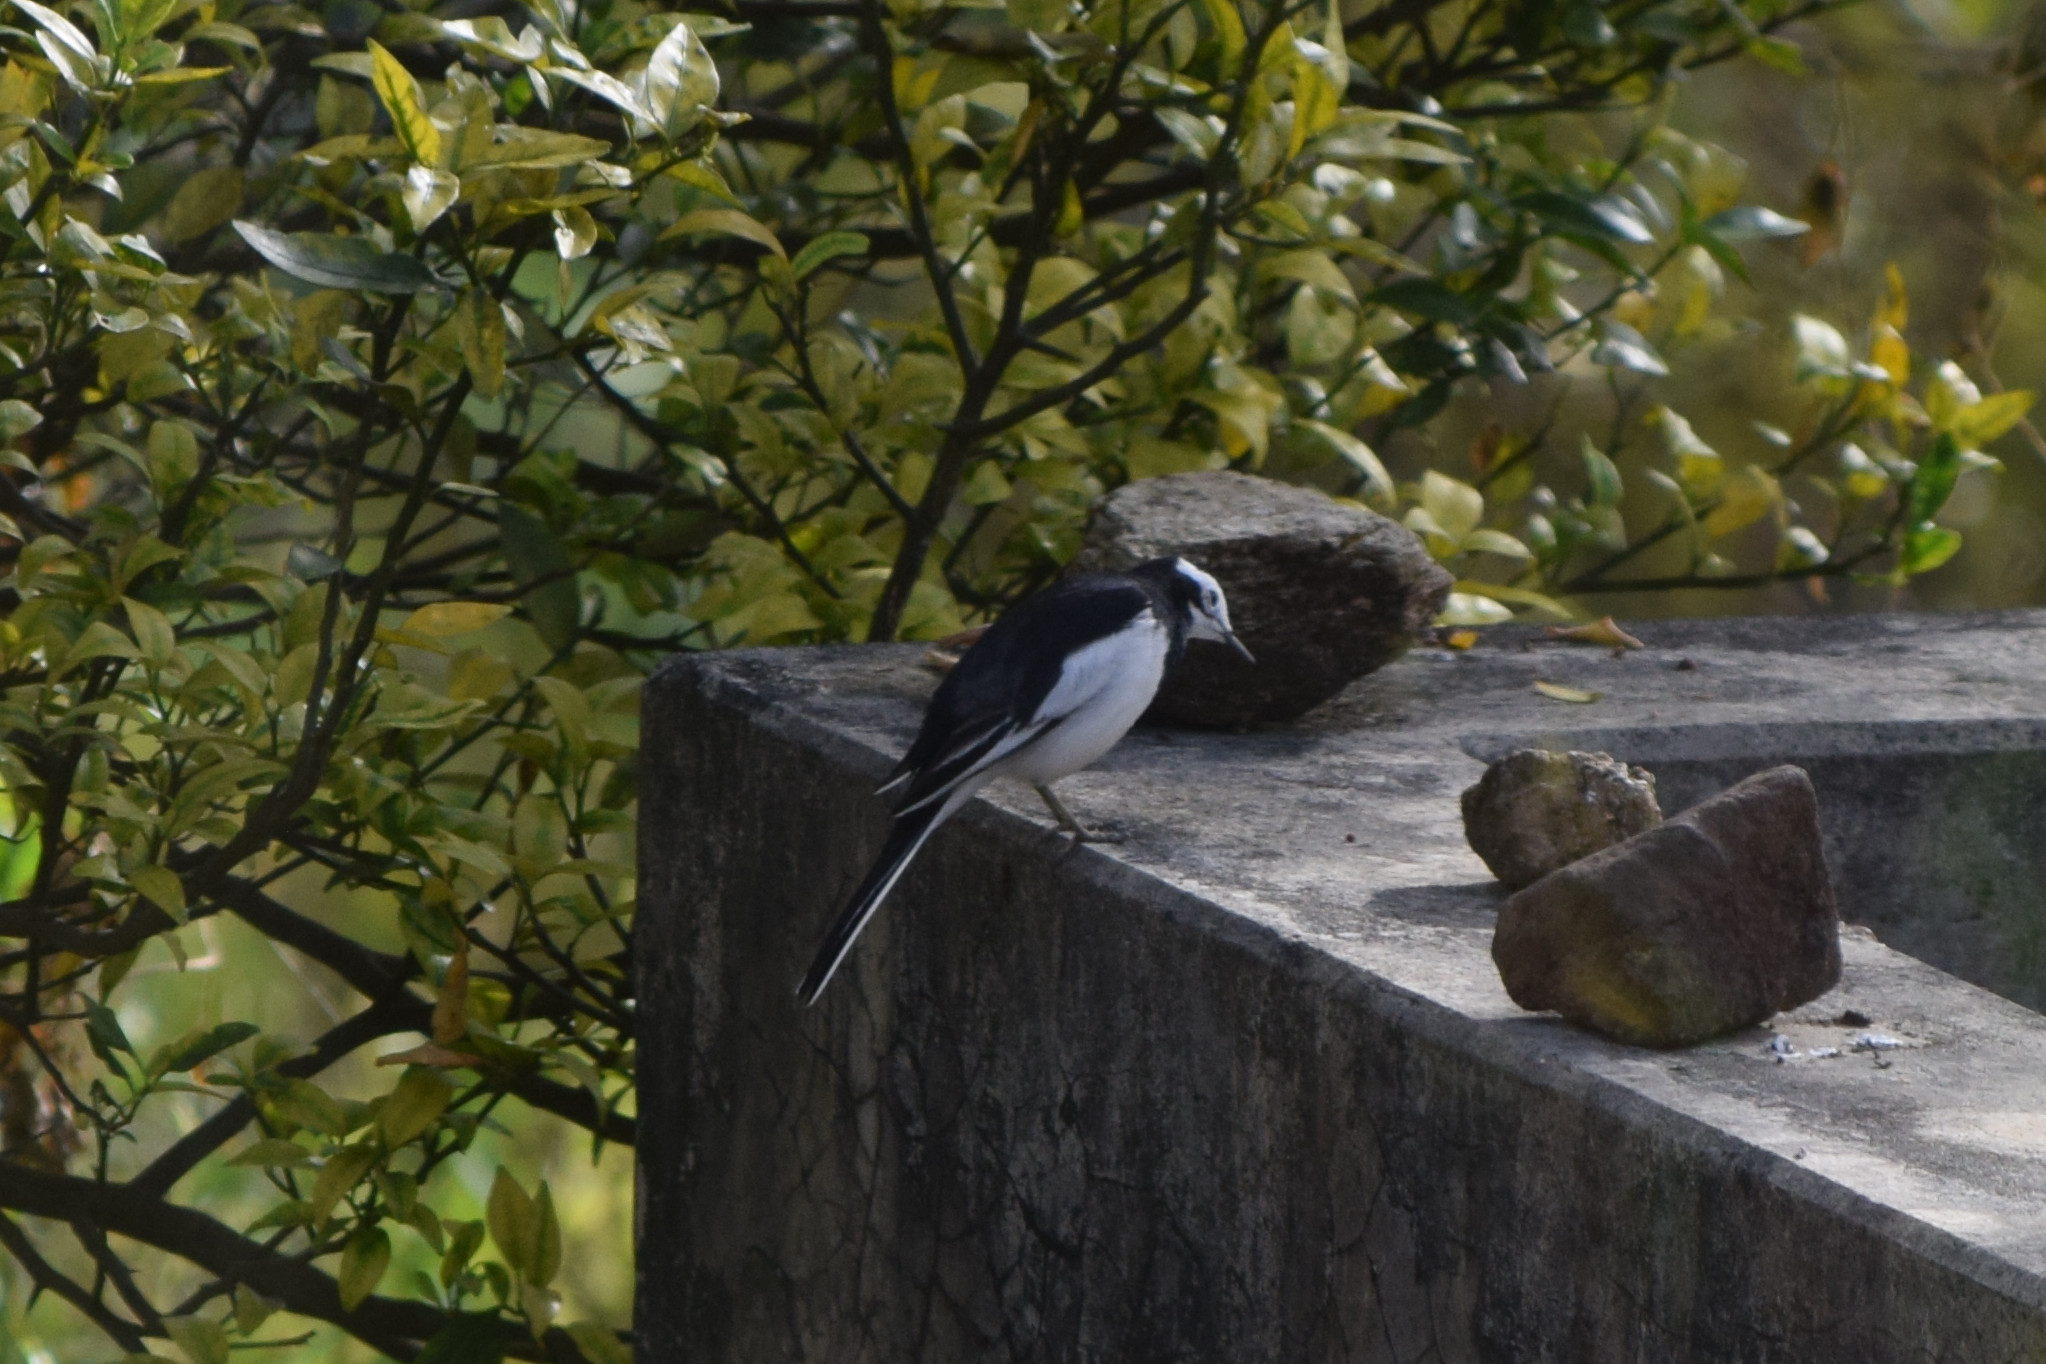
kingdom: Animalia
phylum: Chordata
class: Aves
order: Passeriformes
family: Motacillidae
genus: Motacilla
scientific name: Motacilla alba
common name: White wagtail
